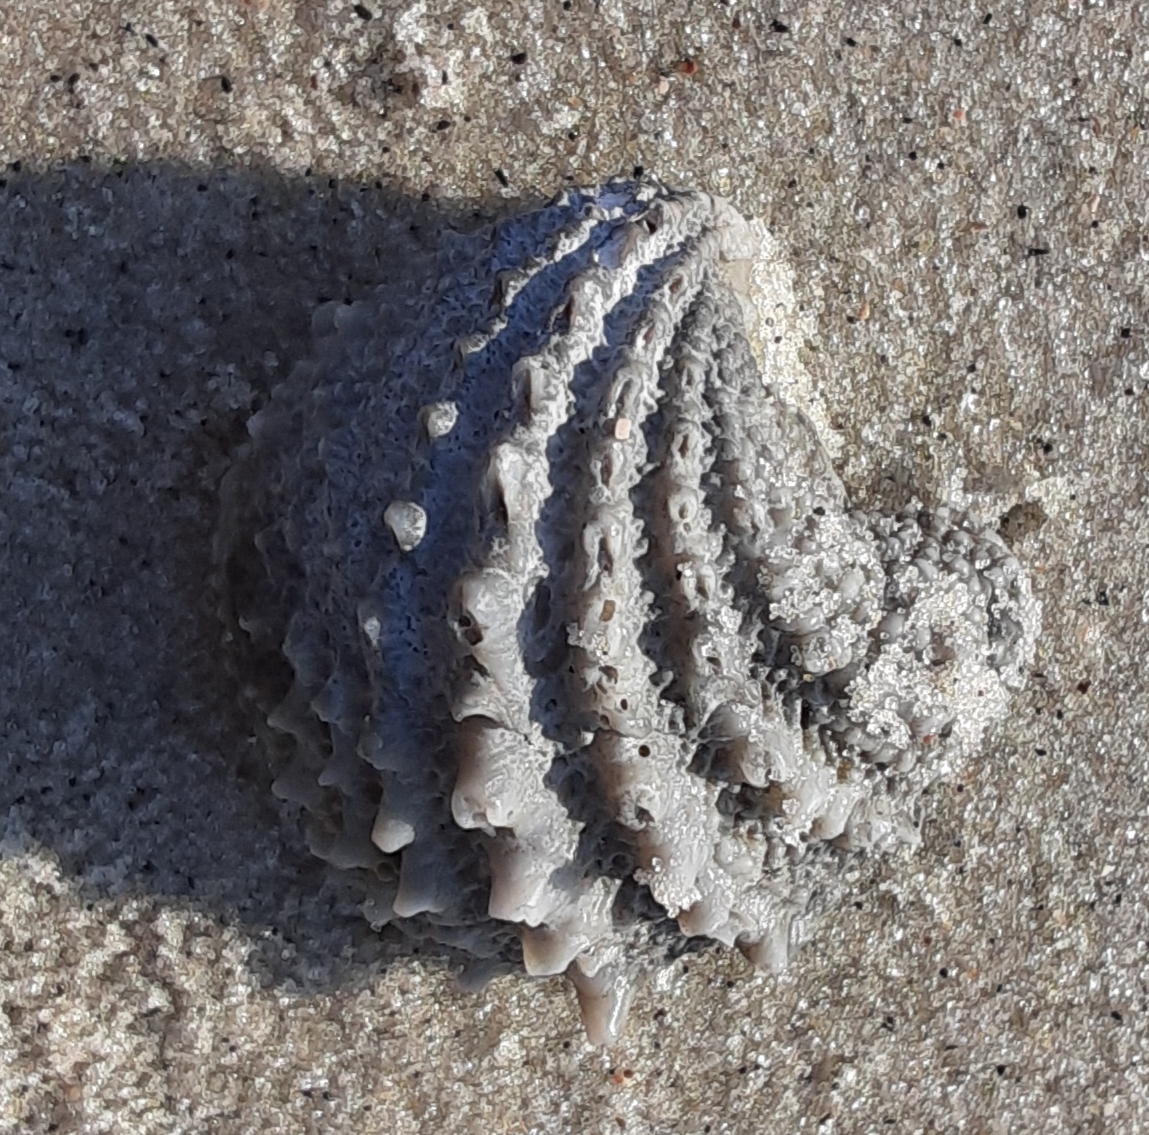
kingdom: Animalia
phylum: Mollusca
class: Bivalvia
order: Venerida
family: Chamidae
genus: Arcinella
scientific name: Arcinella cornuta
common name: Florida spiny jewel box
